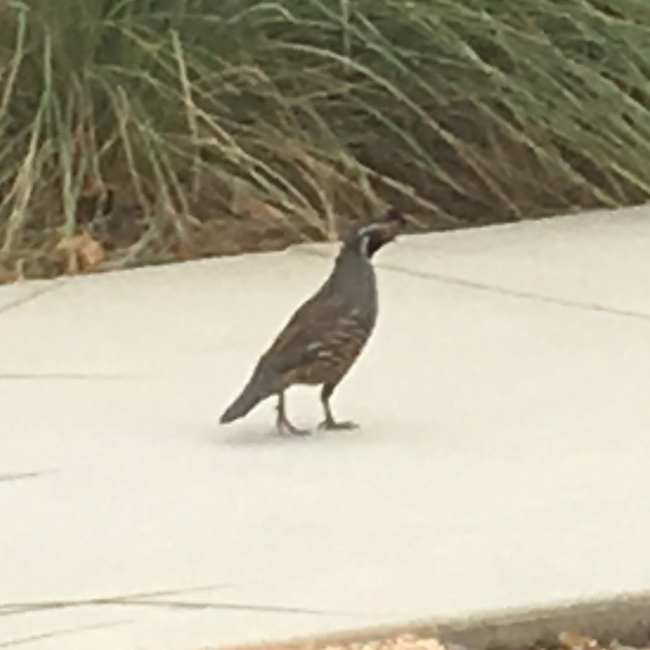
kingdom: Animalia
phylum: Chordata
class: Aves
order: Galliformes
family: Odontophoridae
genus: Callipepla
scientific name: Callipepla californica
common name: California quail
